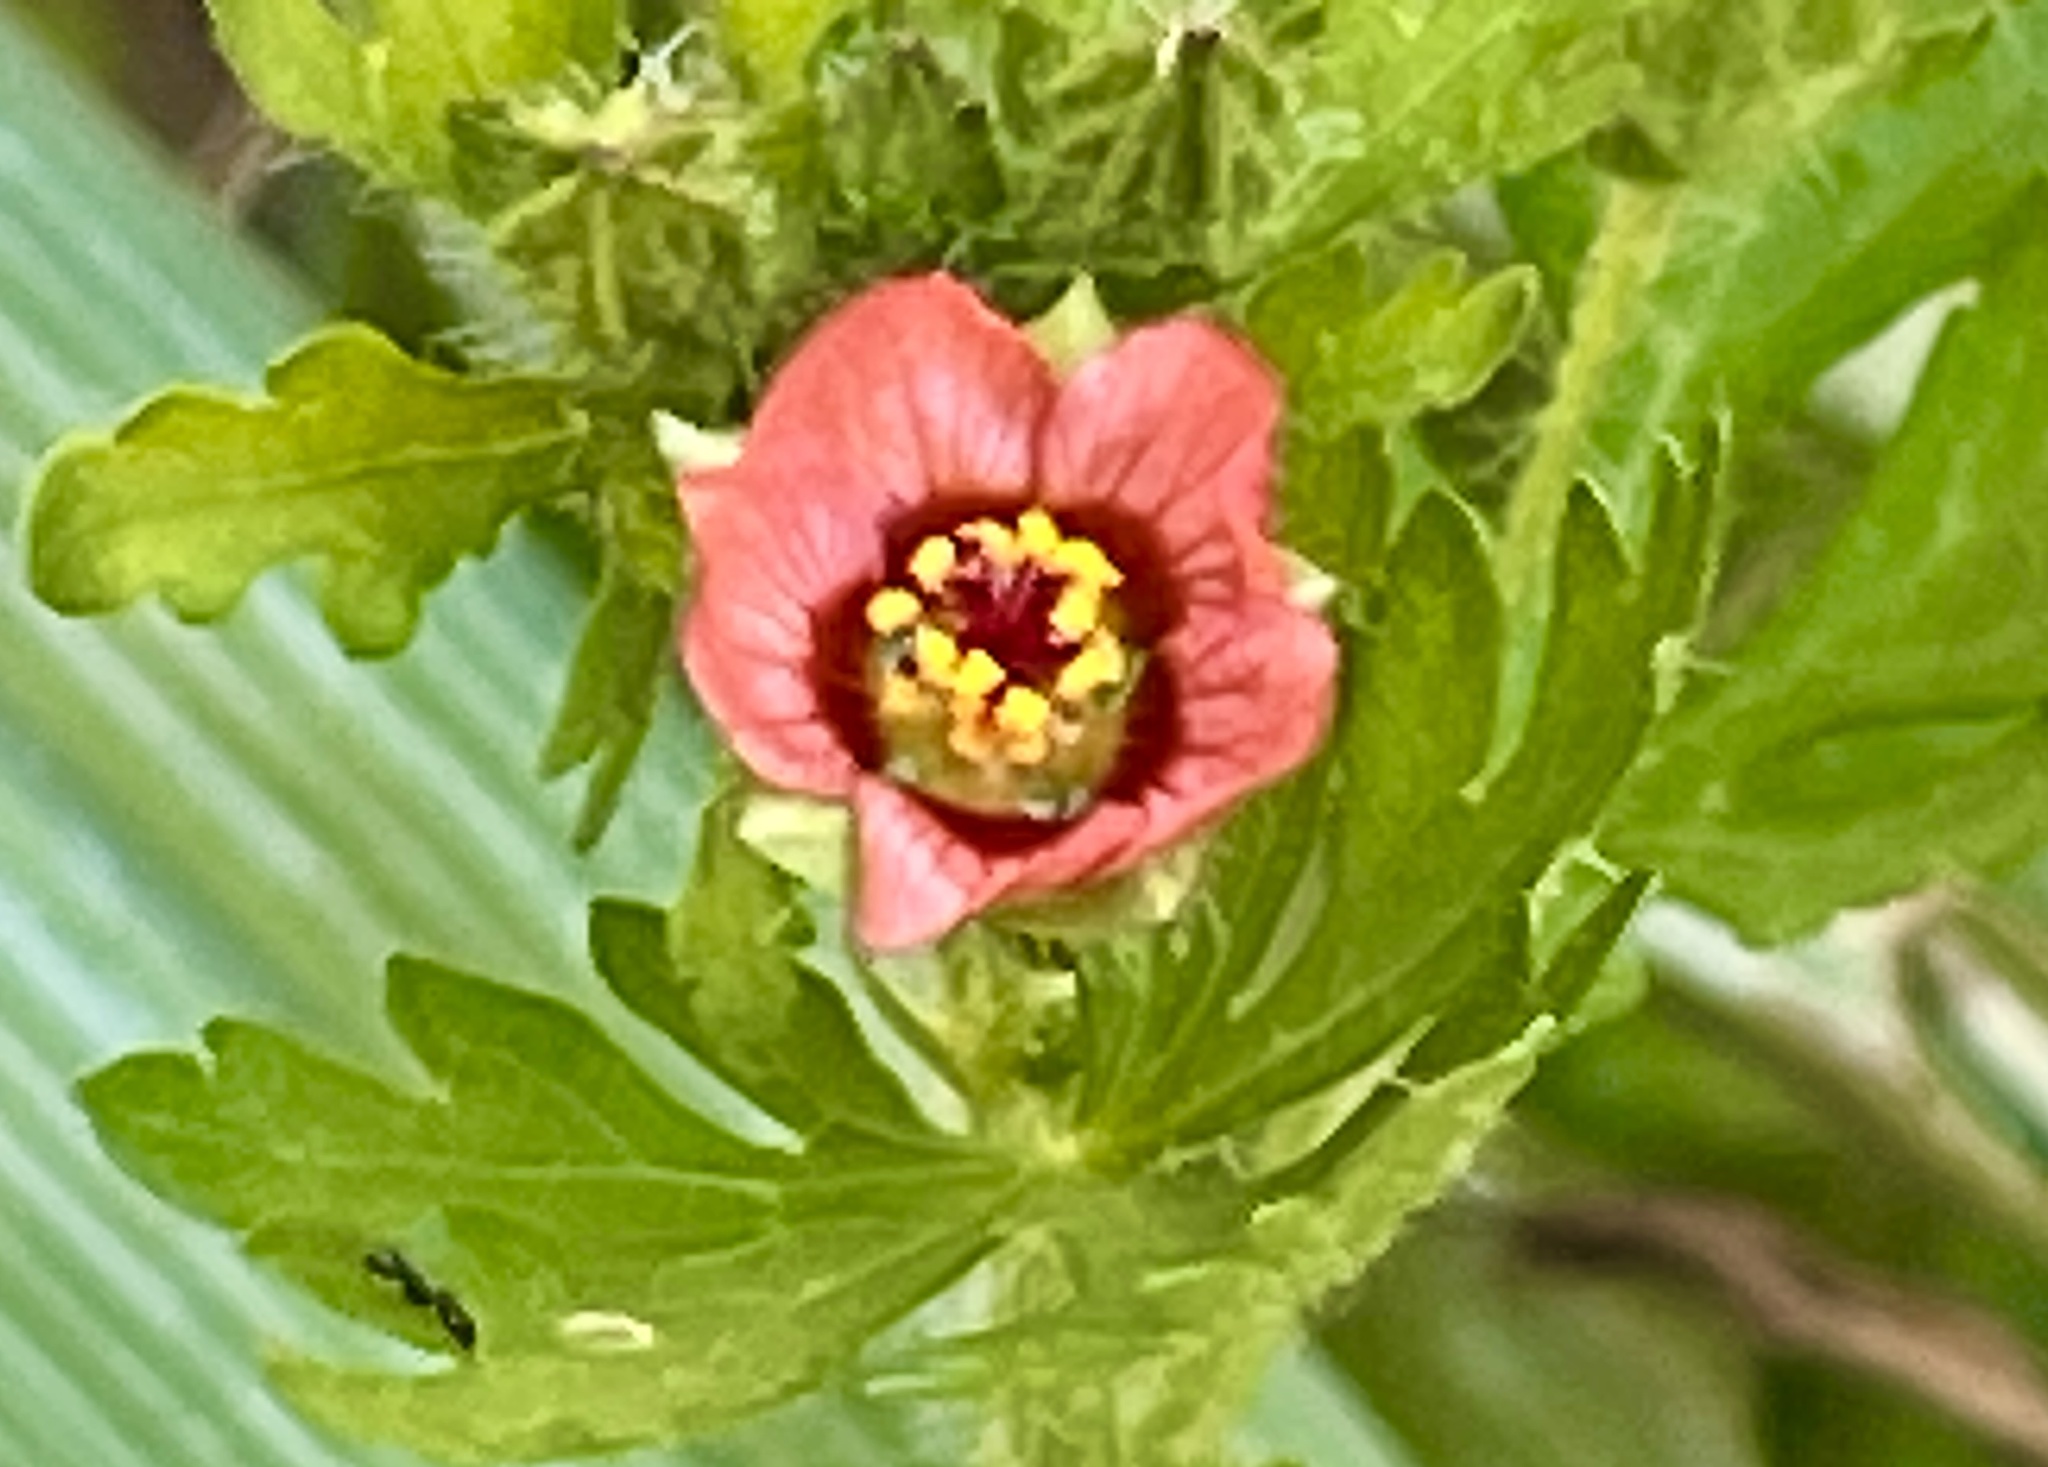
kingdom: Plantae
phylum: Tracheophyta
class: Magnoliopsida
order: Malvales
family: Malvaceae
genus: Modiola
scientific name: Modiola caroliniana
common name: Carolina bristlemallow
